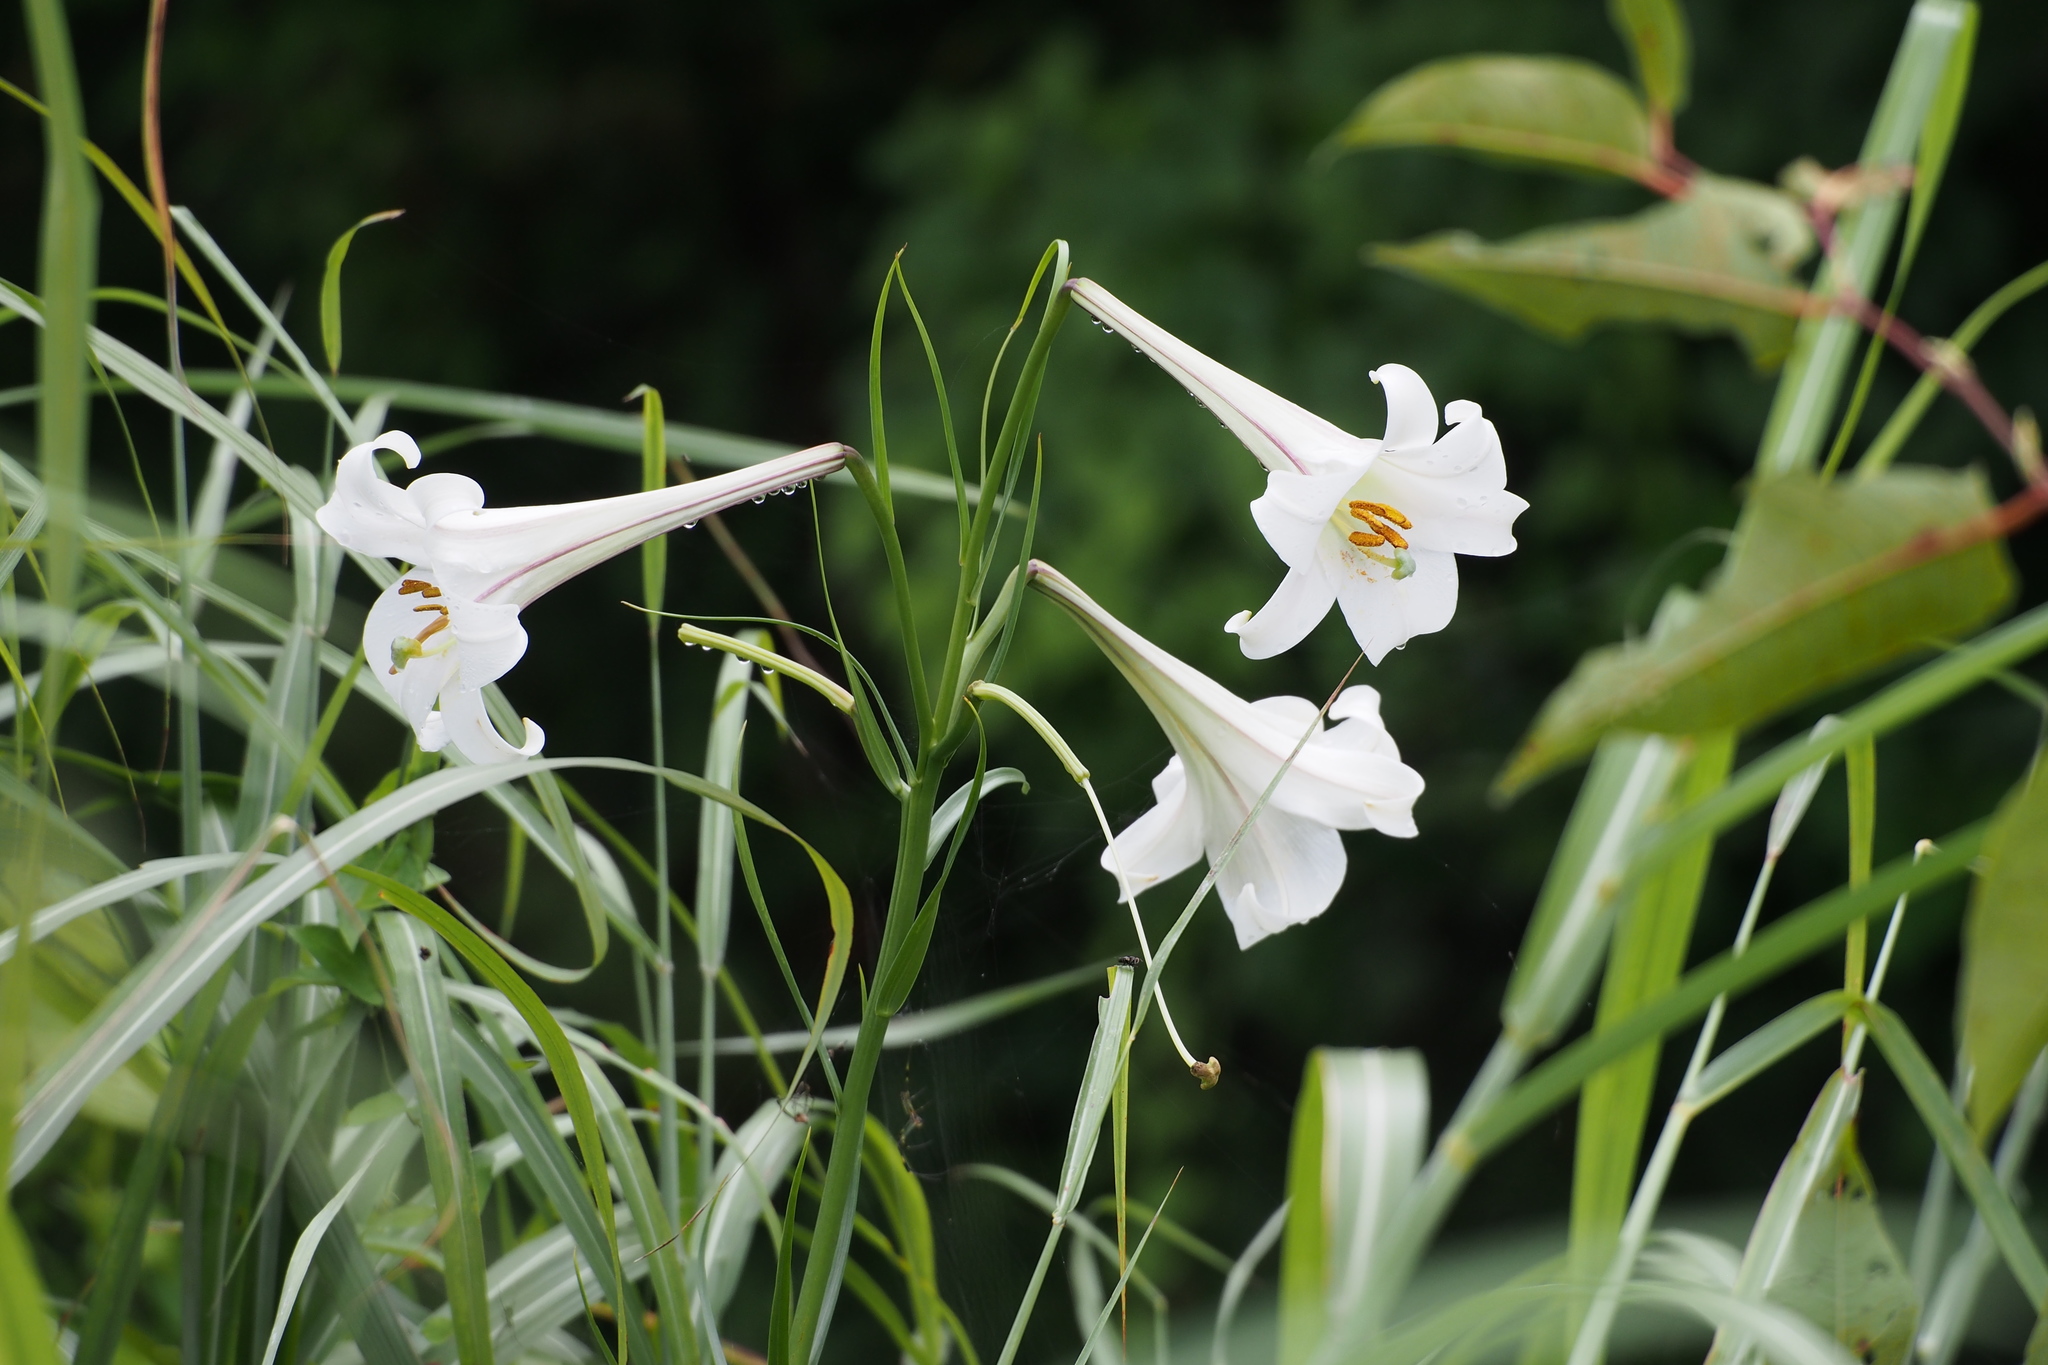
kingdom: Plantae
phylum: Tracheophyta
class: Liliopsida
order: Liliales
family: Liliaceae
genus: Lilium
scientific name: Lilium formosanum
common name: Formosa lily
